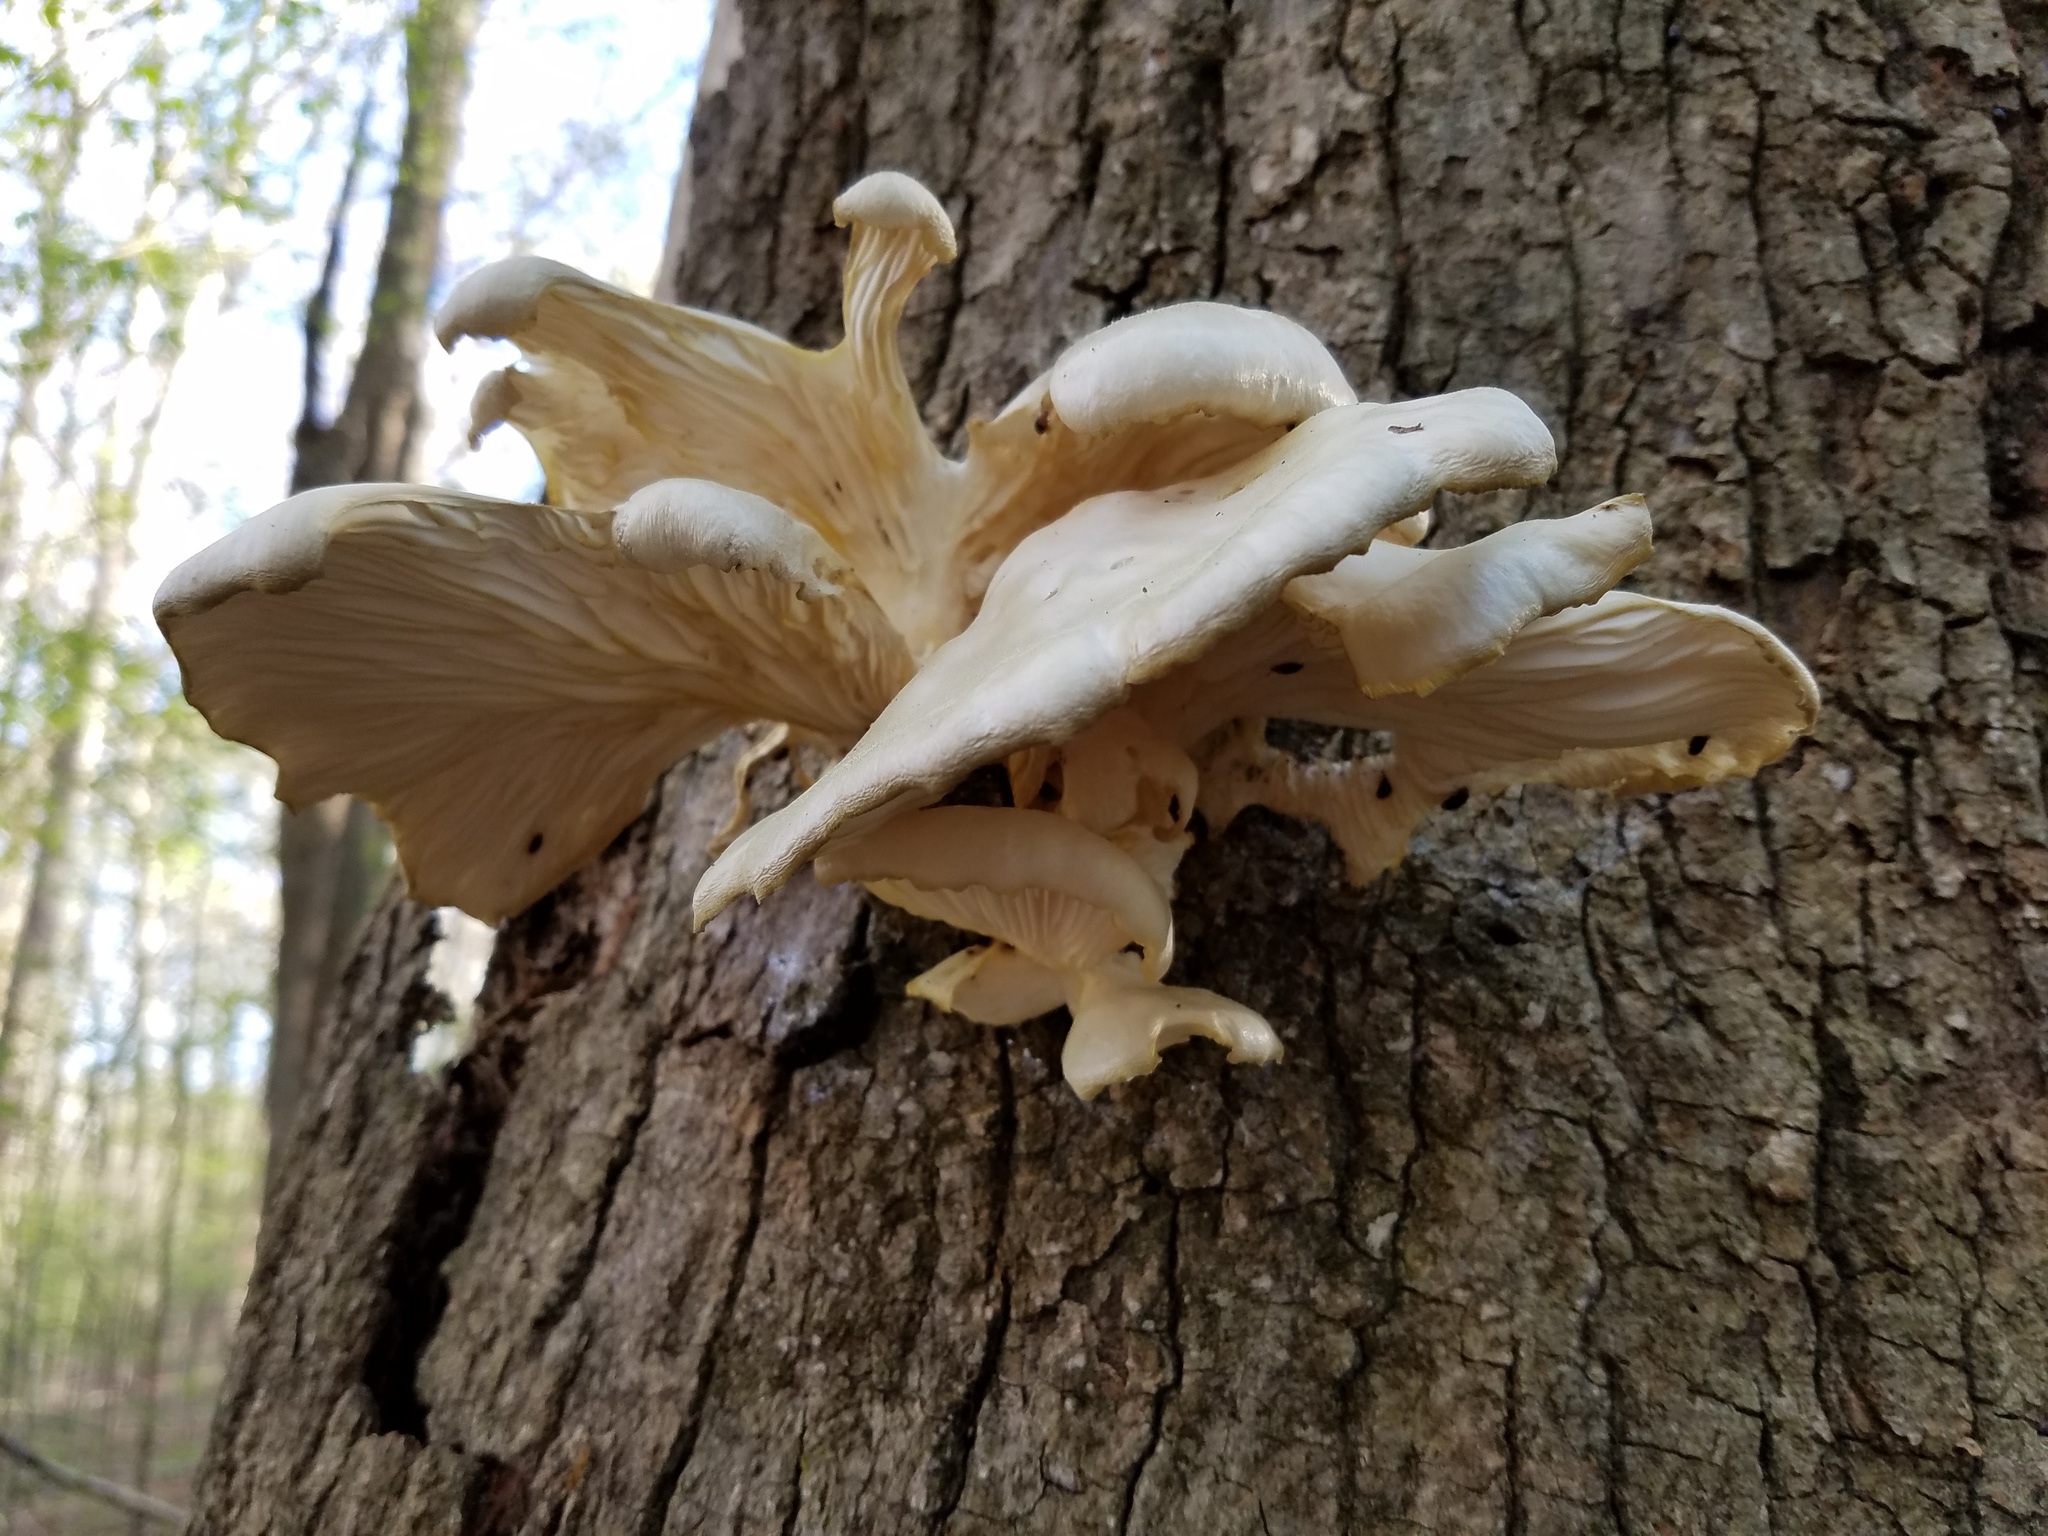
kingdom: Fungi
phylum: Basidiomycota
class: Agaricomycetes
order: Agaricales
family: Pleurotaceae
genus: Pleurotus
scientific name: Pleurotus ostreatus
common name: Oyster mushroom
